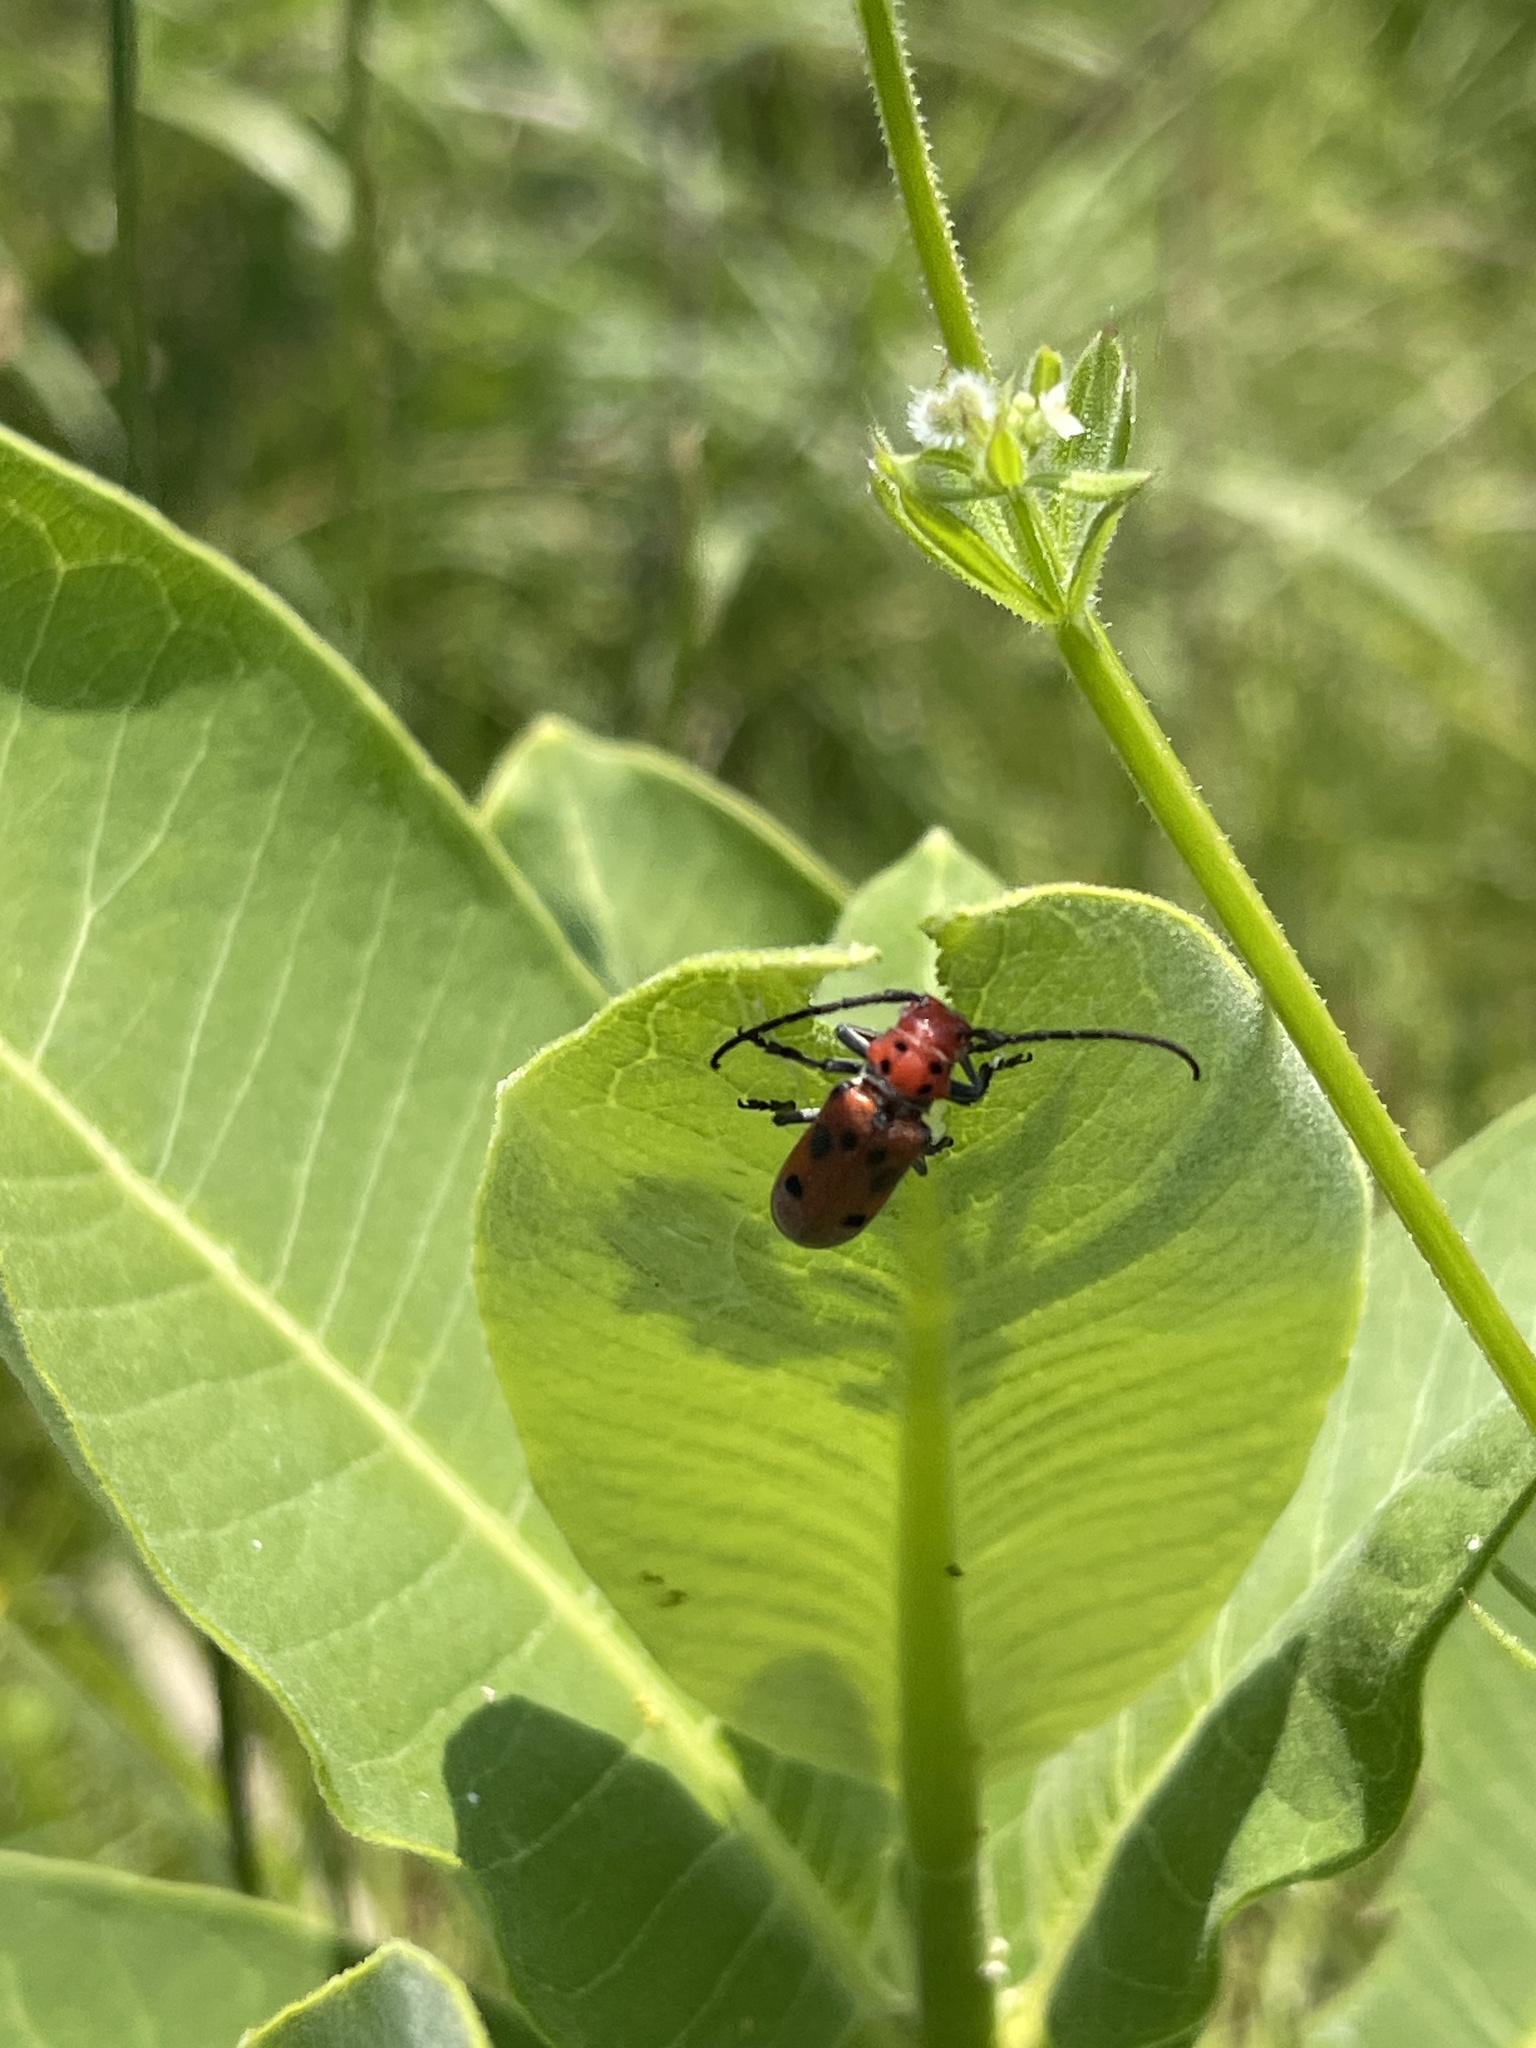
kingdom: Animalia
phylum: Arthropoda
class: Insecta
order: Coleoptera
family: Cerambycidae
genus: Tetraopes
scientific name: Tetraopes tetrophthalmus
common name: Red milkweed beetle
